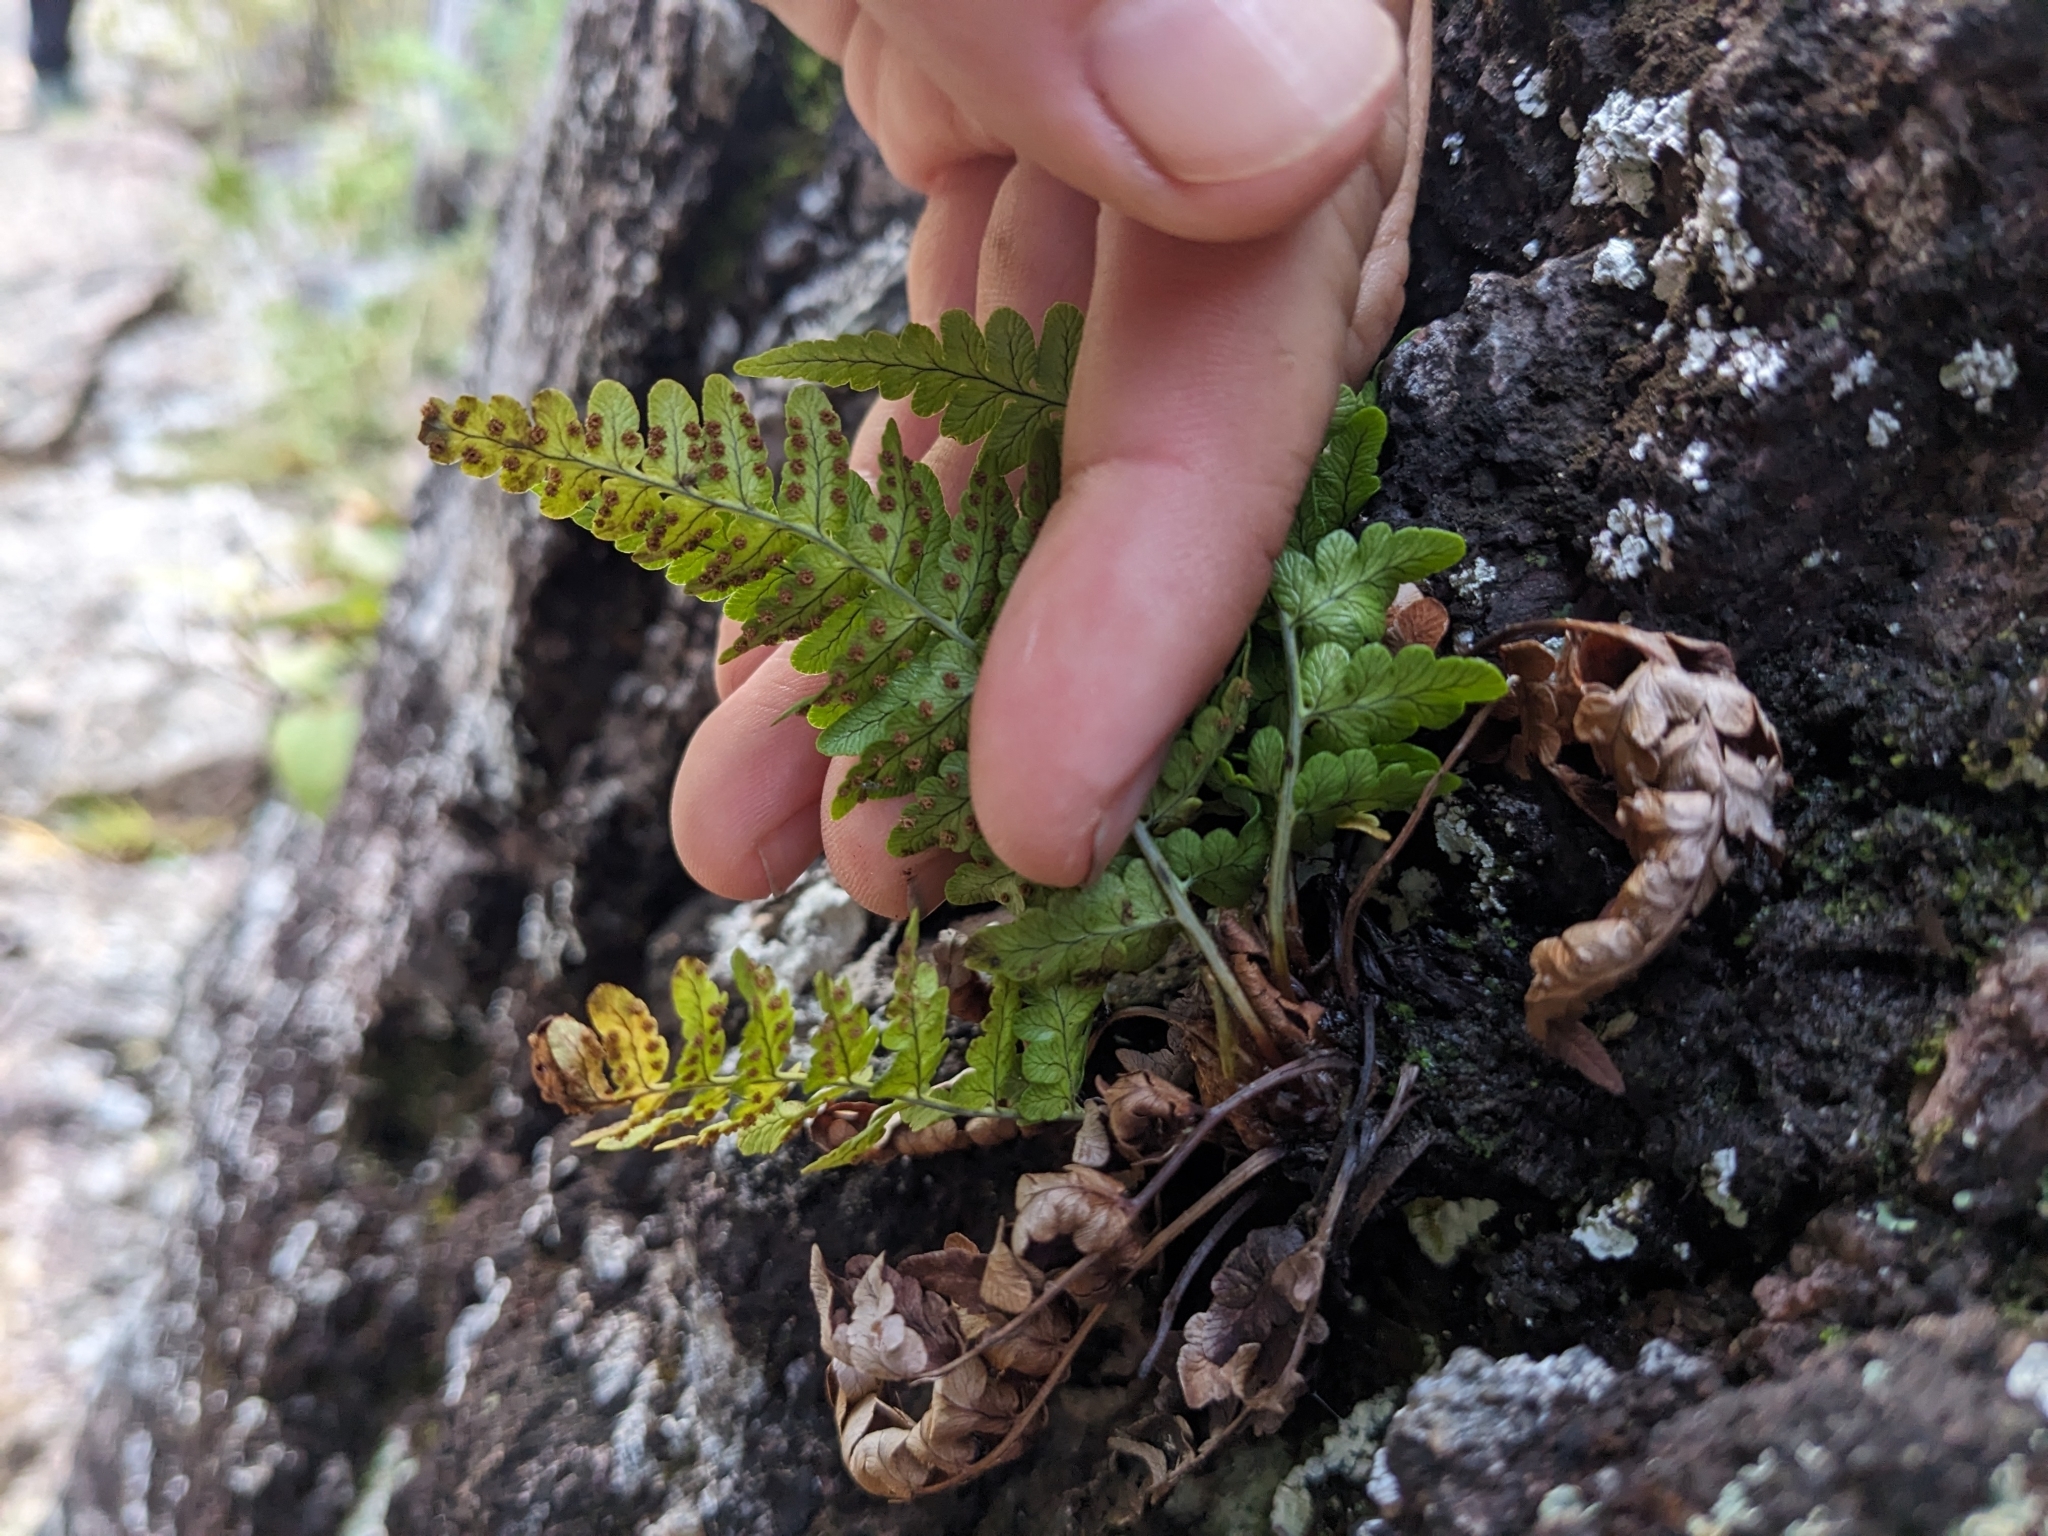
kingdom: Plantae
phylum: Tracheophyta
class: Polypodiopsida
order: Polypodiales
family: Dryopteridaceae
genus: Dryopteris
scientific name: Dryopteris marginalis
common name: Marginal wood fern
